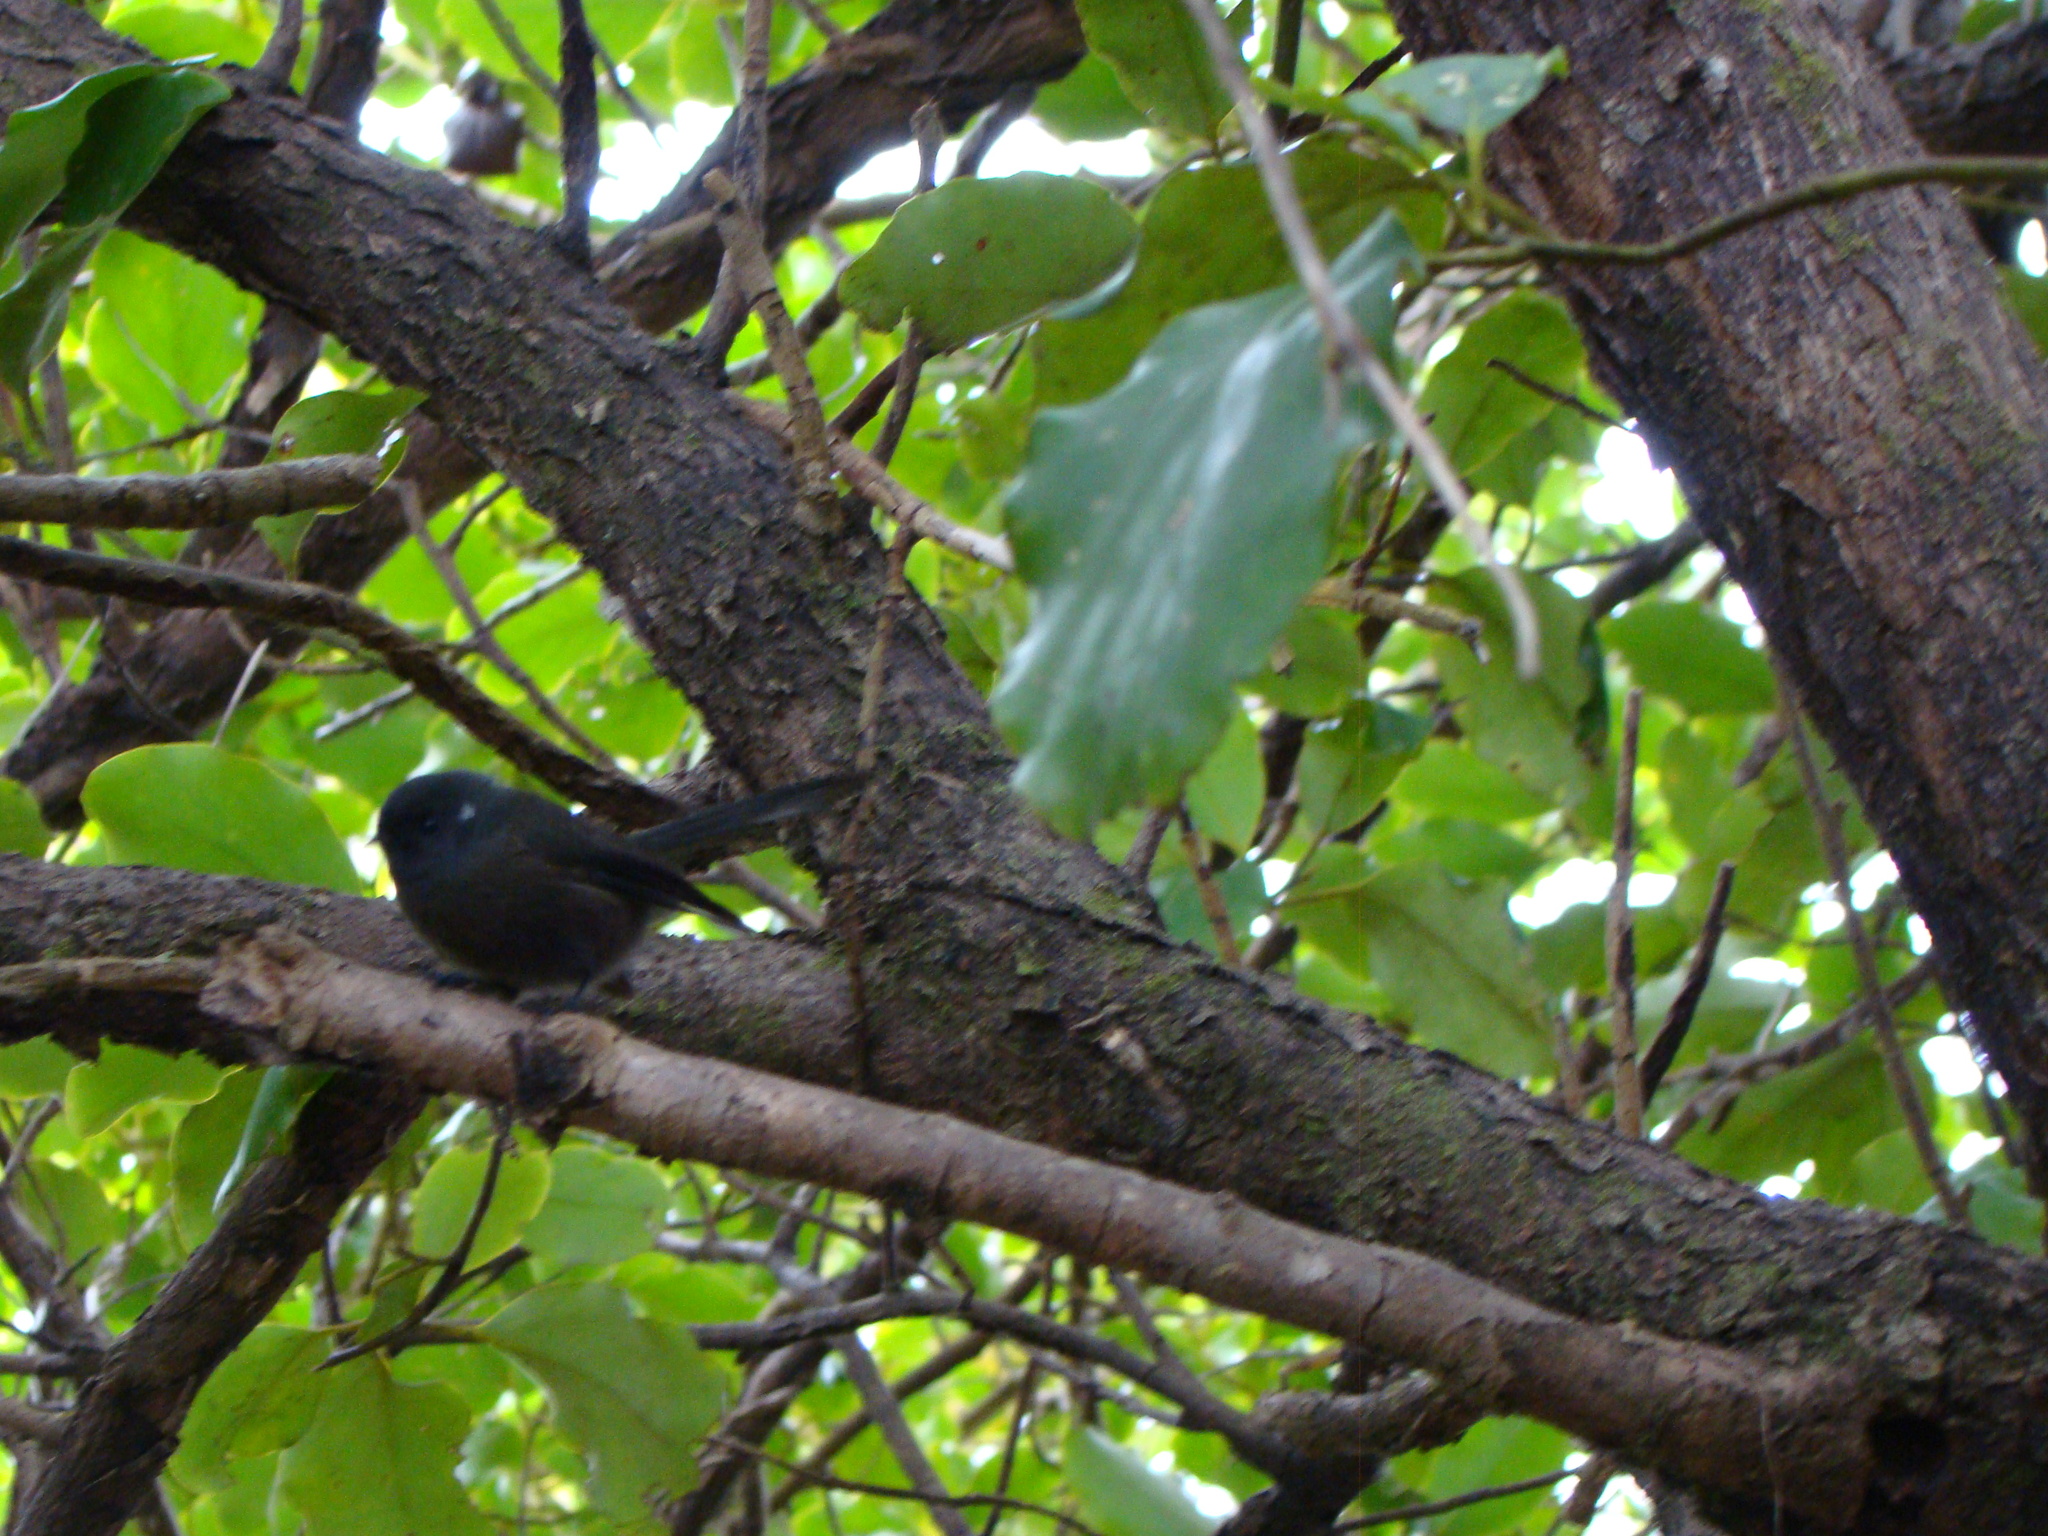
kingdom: Animalia
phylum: Chordata
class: Aves
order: Passeriformes
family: Rhipiduridae
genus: Rhipidura
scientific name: Rhipidura fuliginosa
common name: New zealand fantail
